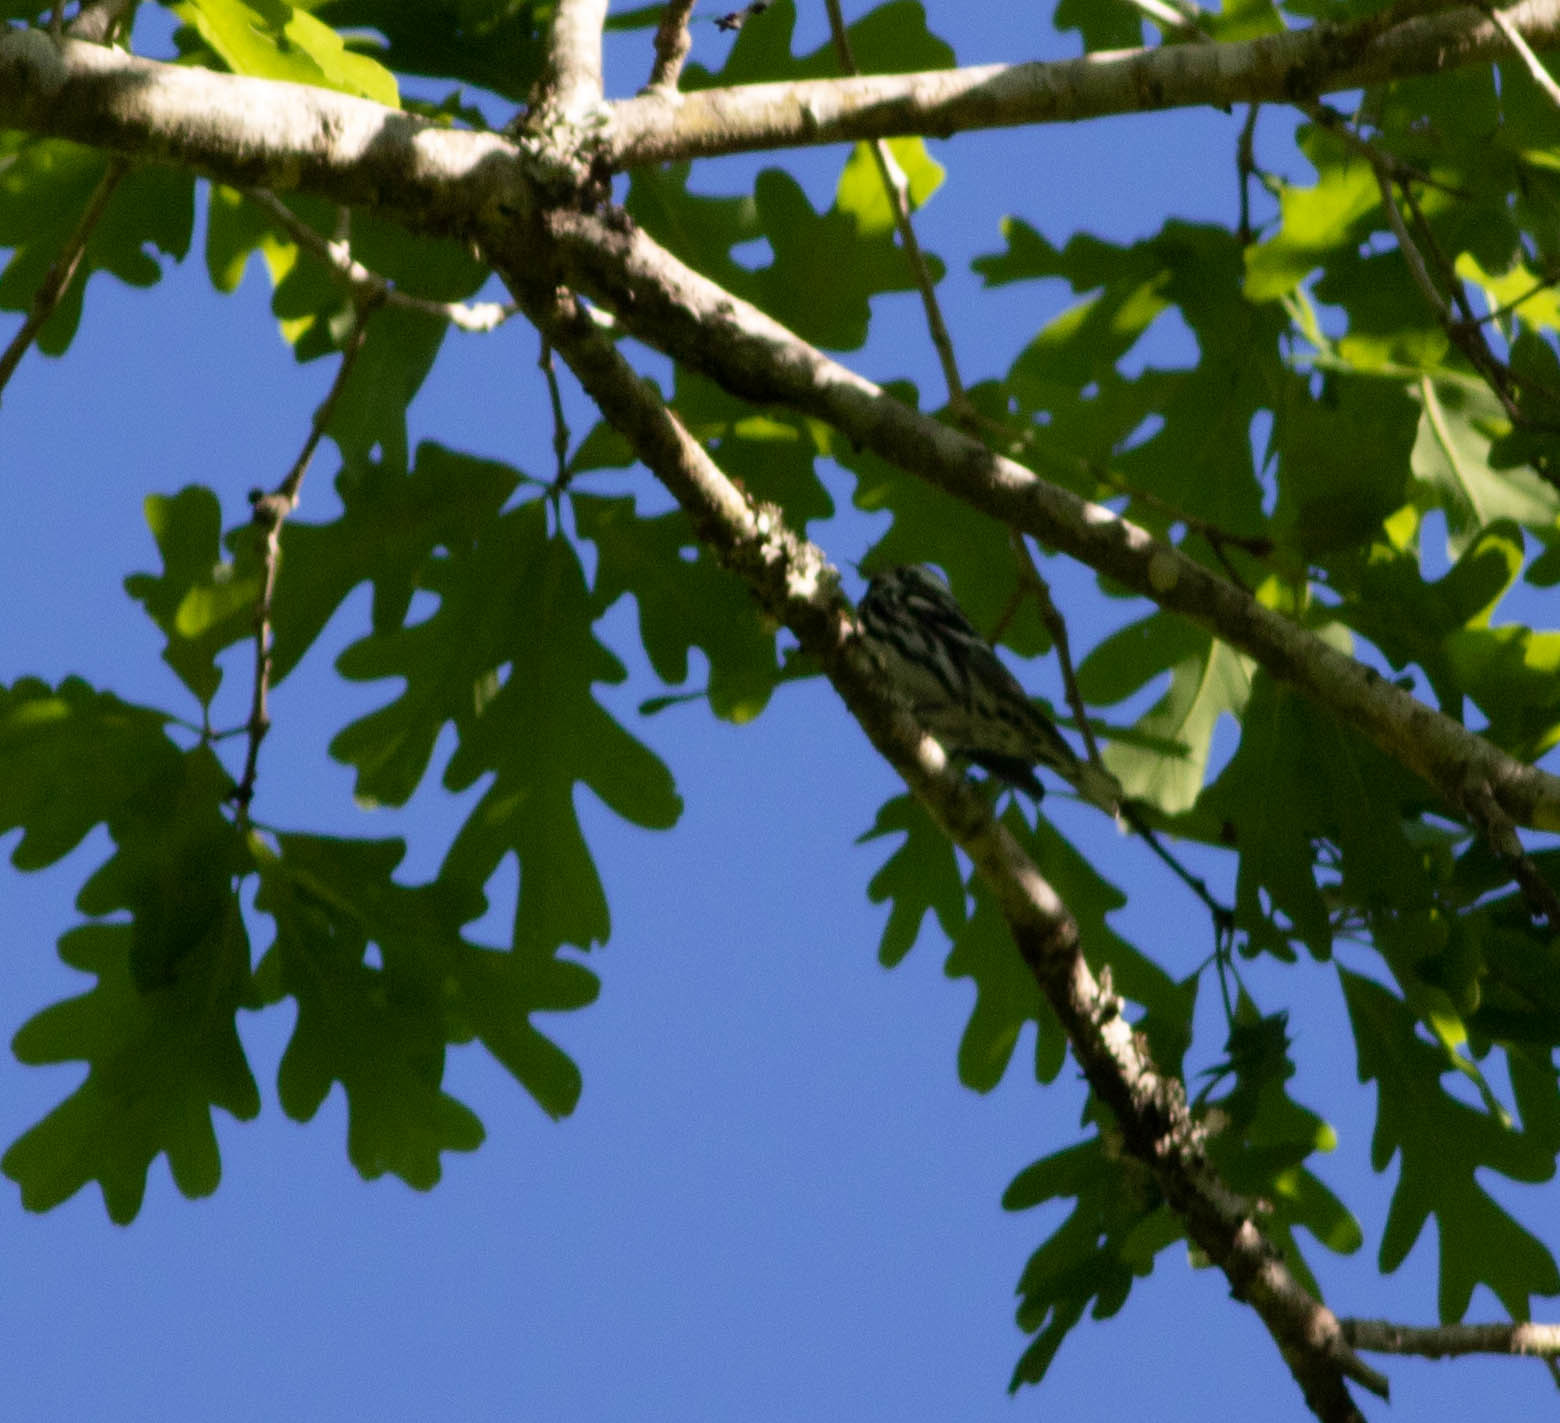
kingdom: Animalia
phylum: Chordata
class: Aves
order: Passeriformes
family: Parulidae
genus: Mniotilta
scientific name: Mniotilta varia
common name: Black-and-white warbler
